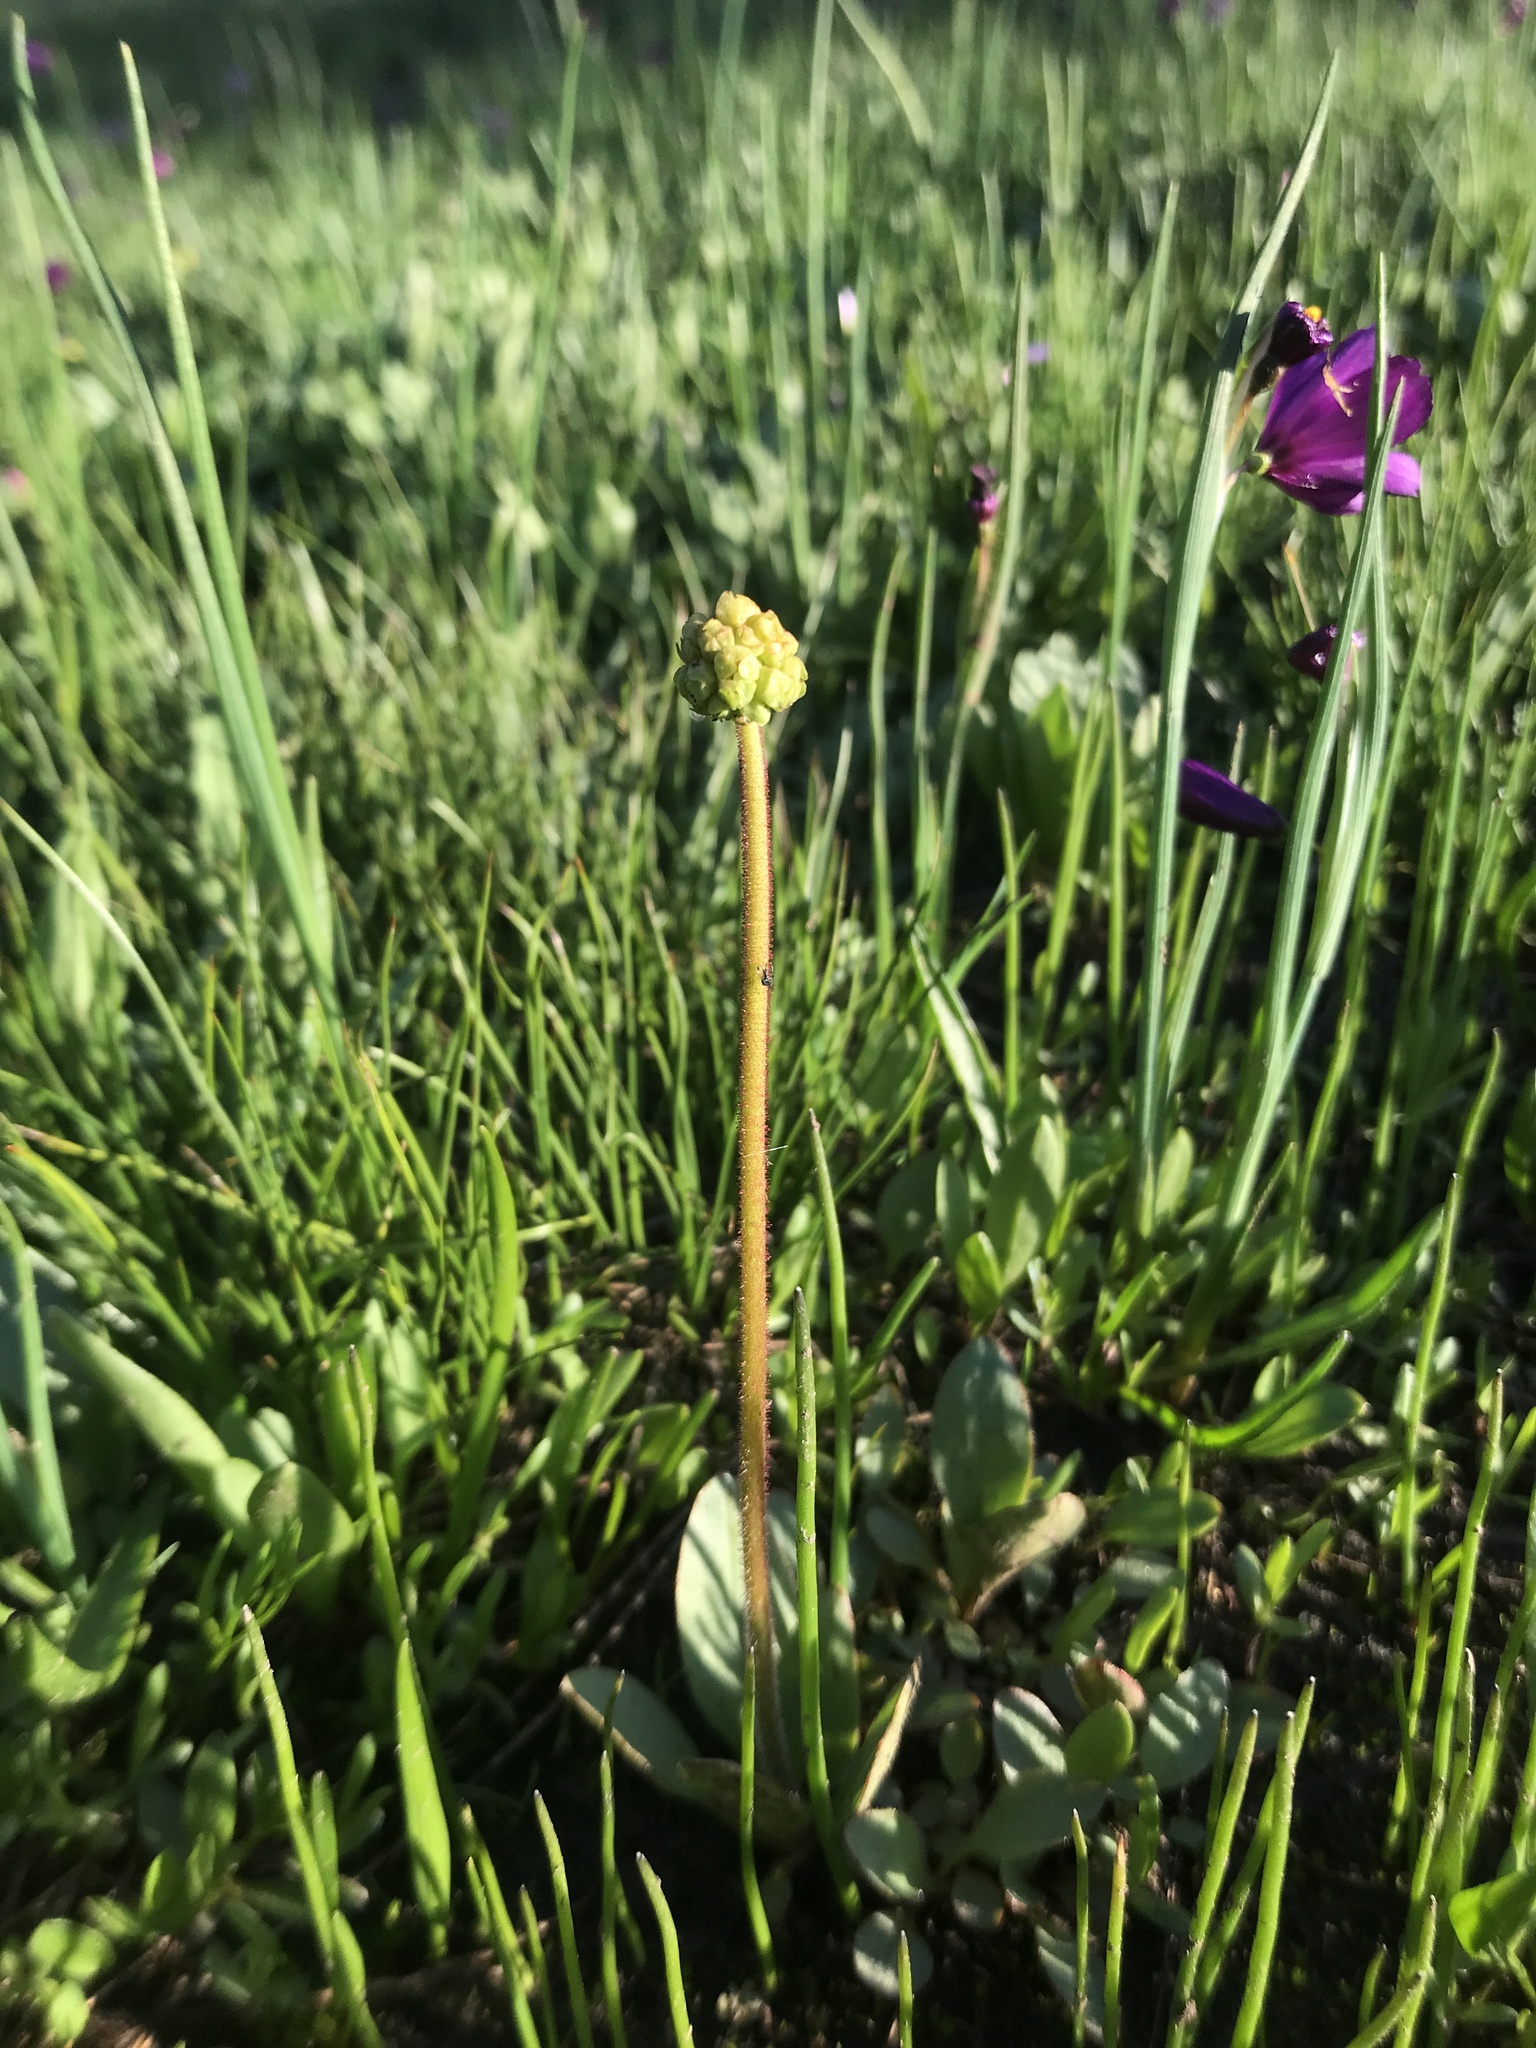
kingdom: Plantae
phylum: Tracheophyta
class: Magnoliopsida
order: Saxifragales
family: Saxifragaceae
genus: Micranthes
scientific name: Micranthes integrifolia
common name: Wholeleaf saxifrage
